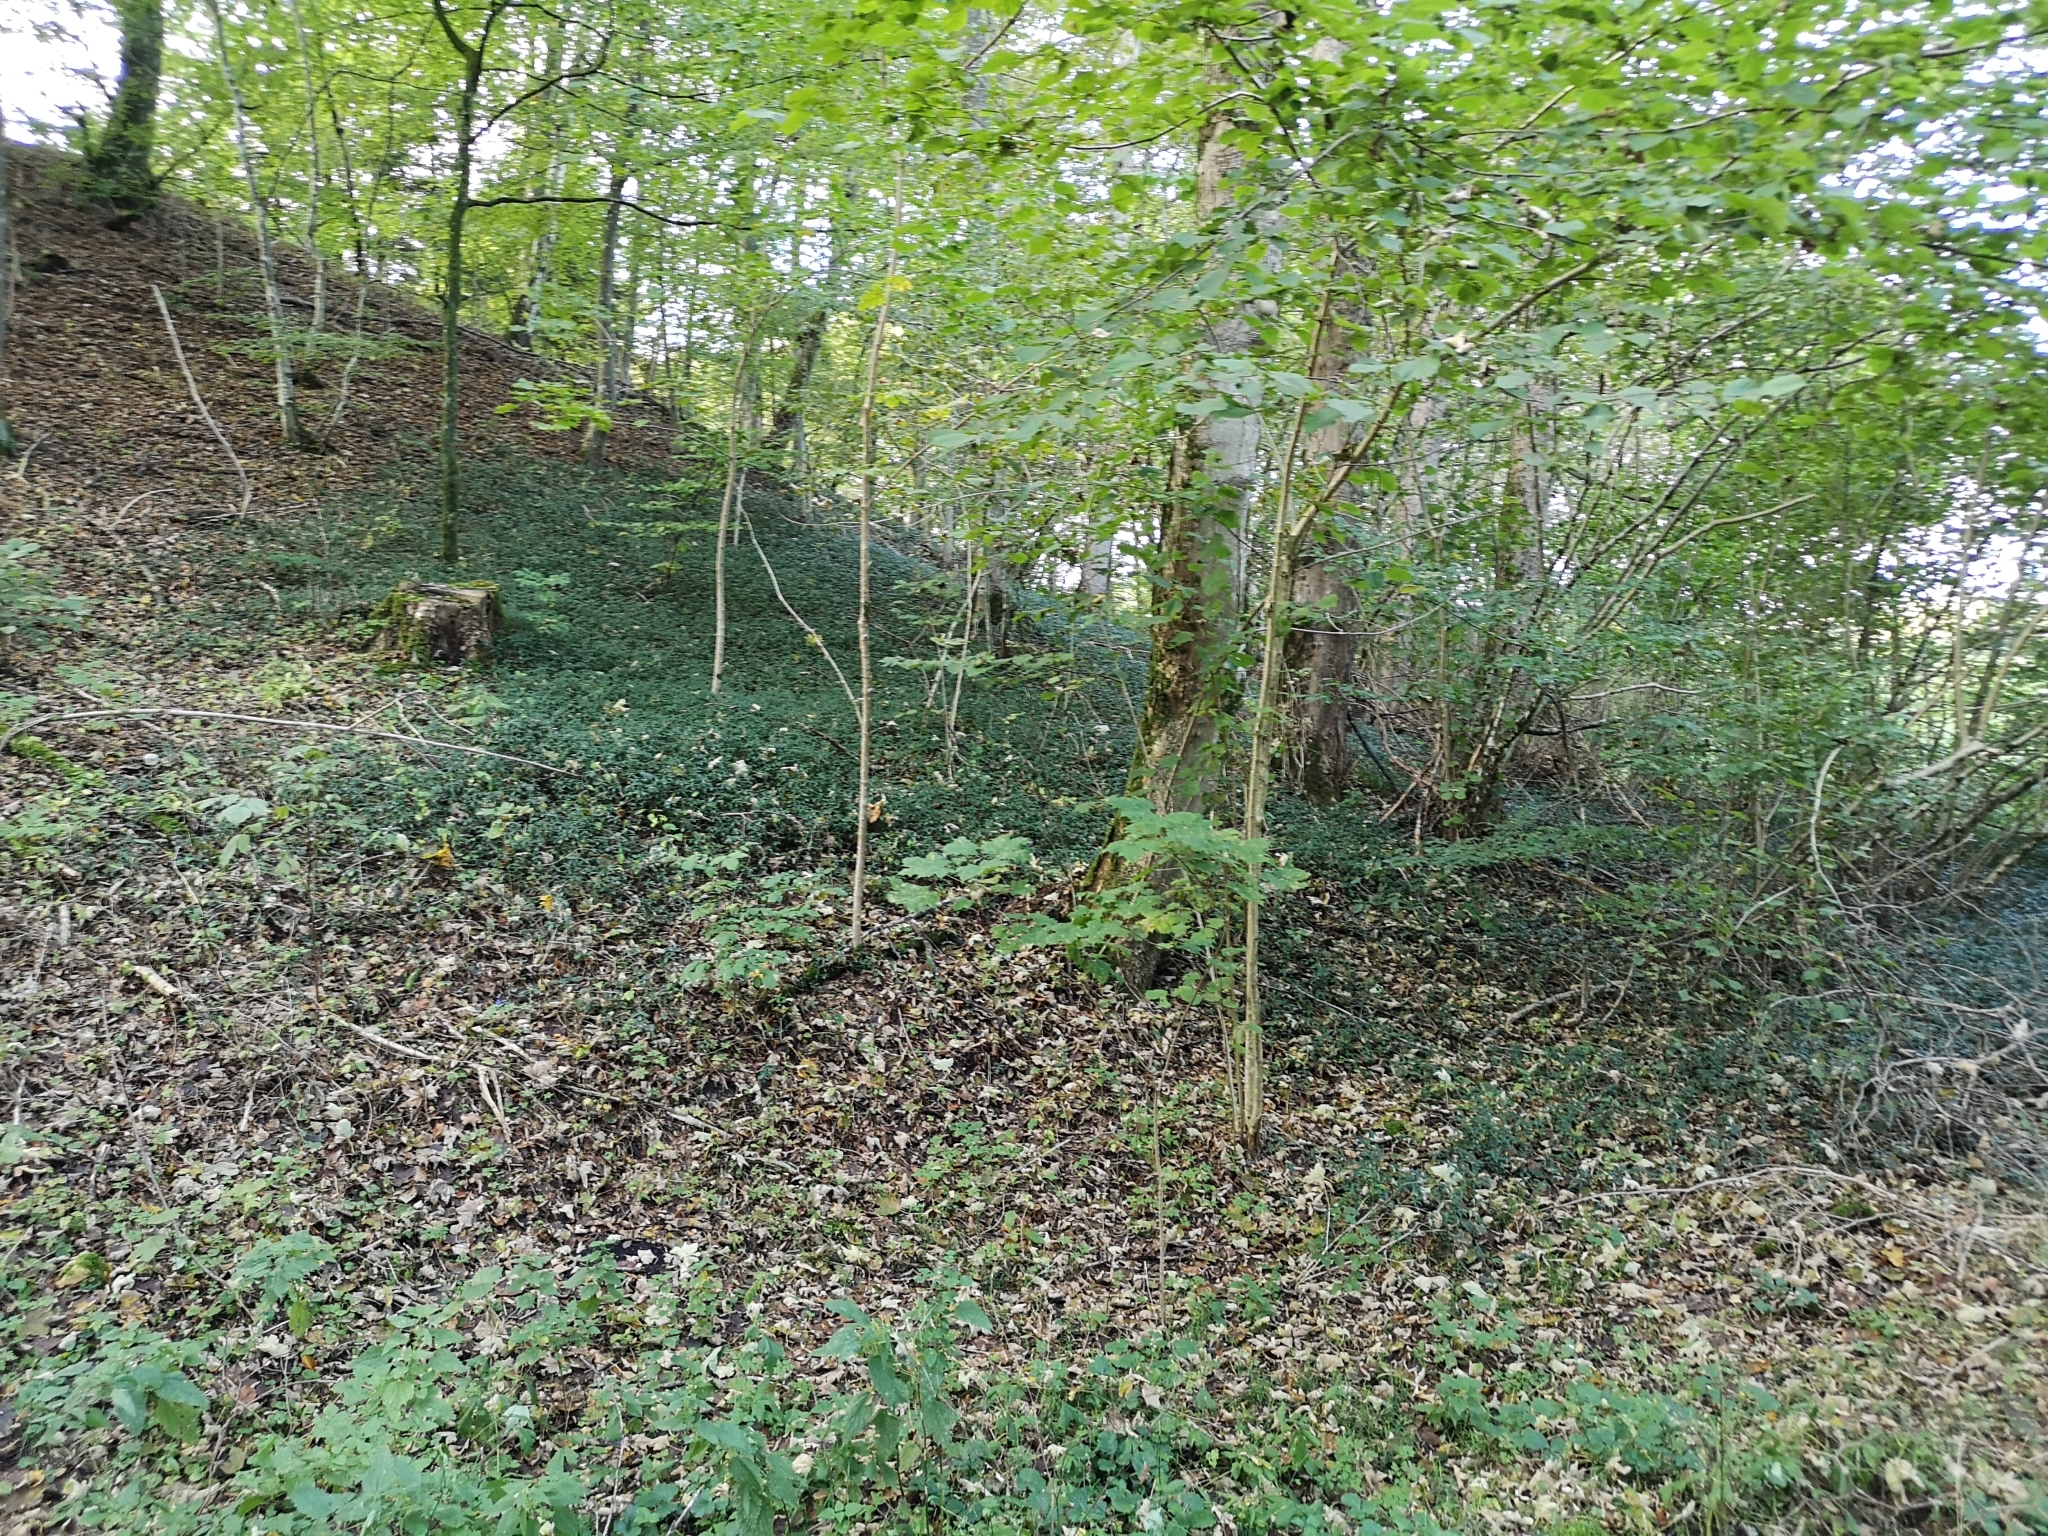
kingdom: Plantae
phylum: Tracheophyta
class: Magnoliopsida
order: Gentianales
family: Apocynaceae
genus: Vinca
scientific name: Vinca minor
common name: Lesser periwinkle
